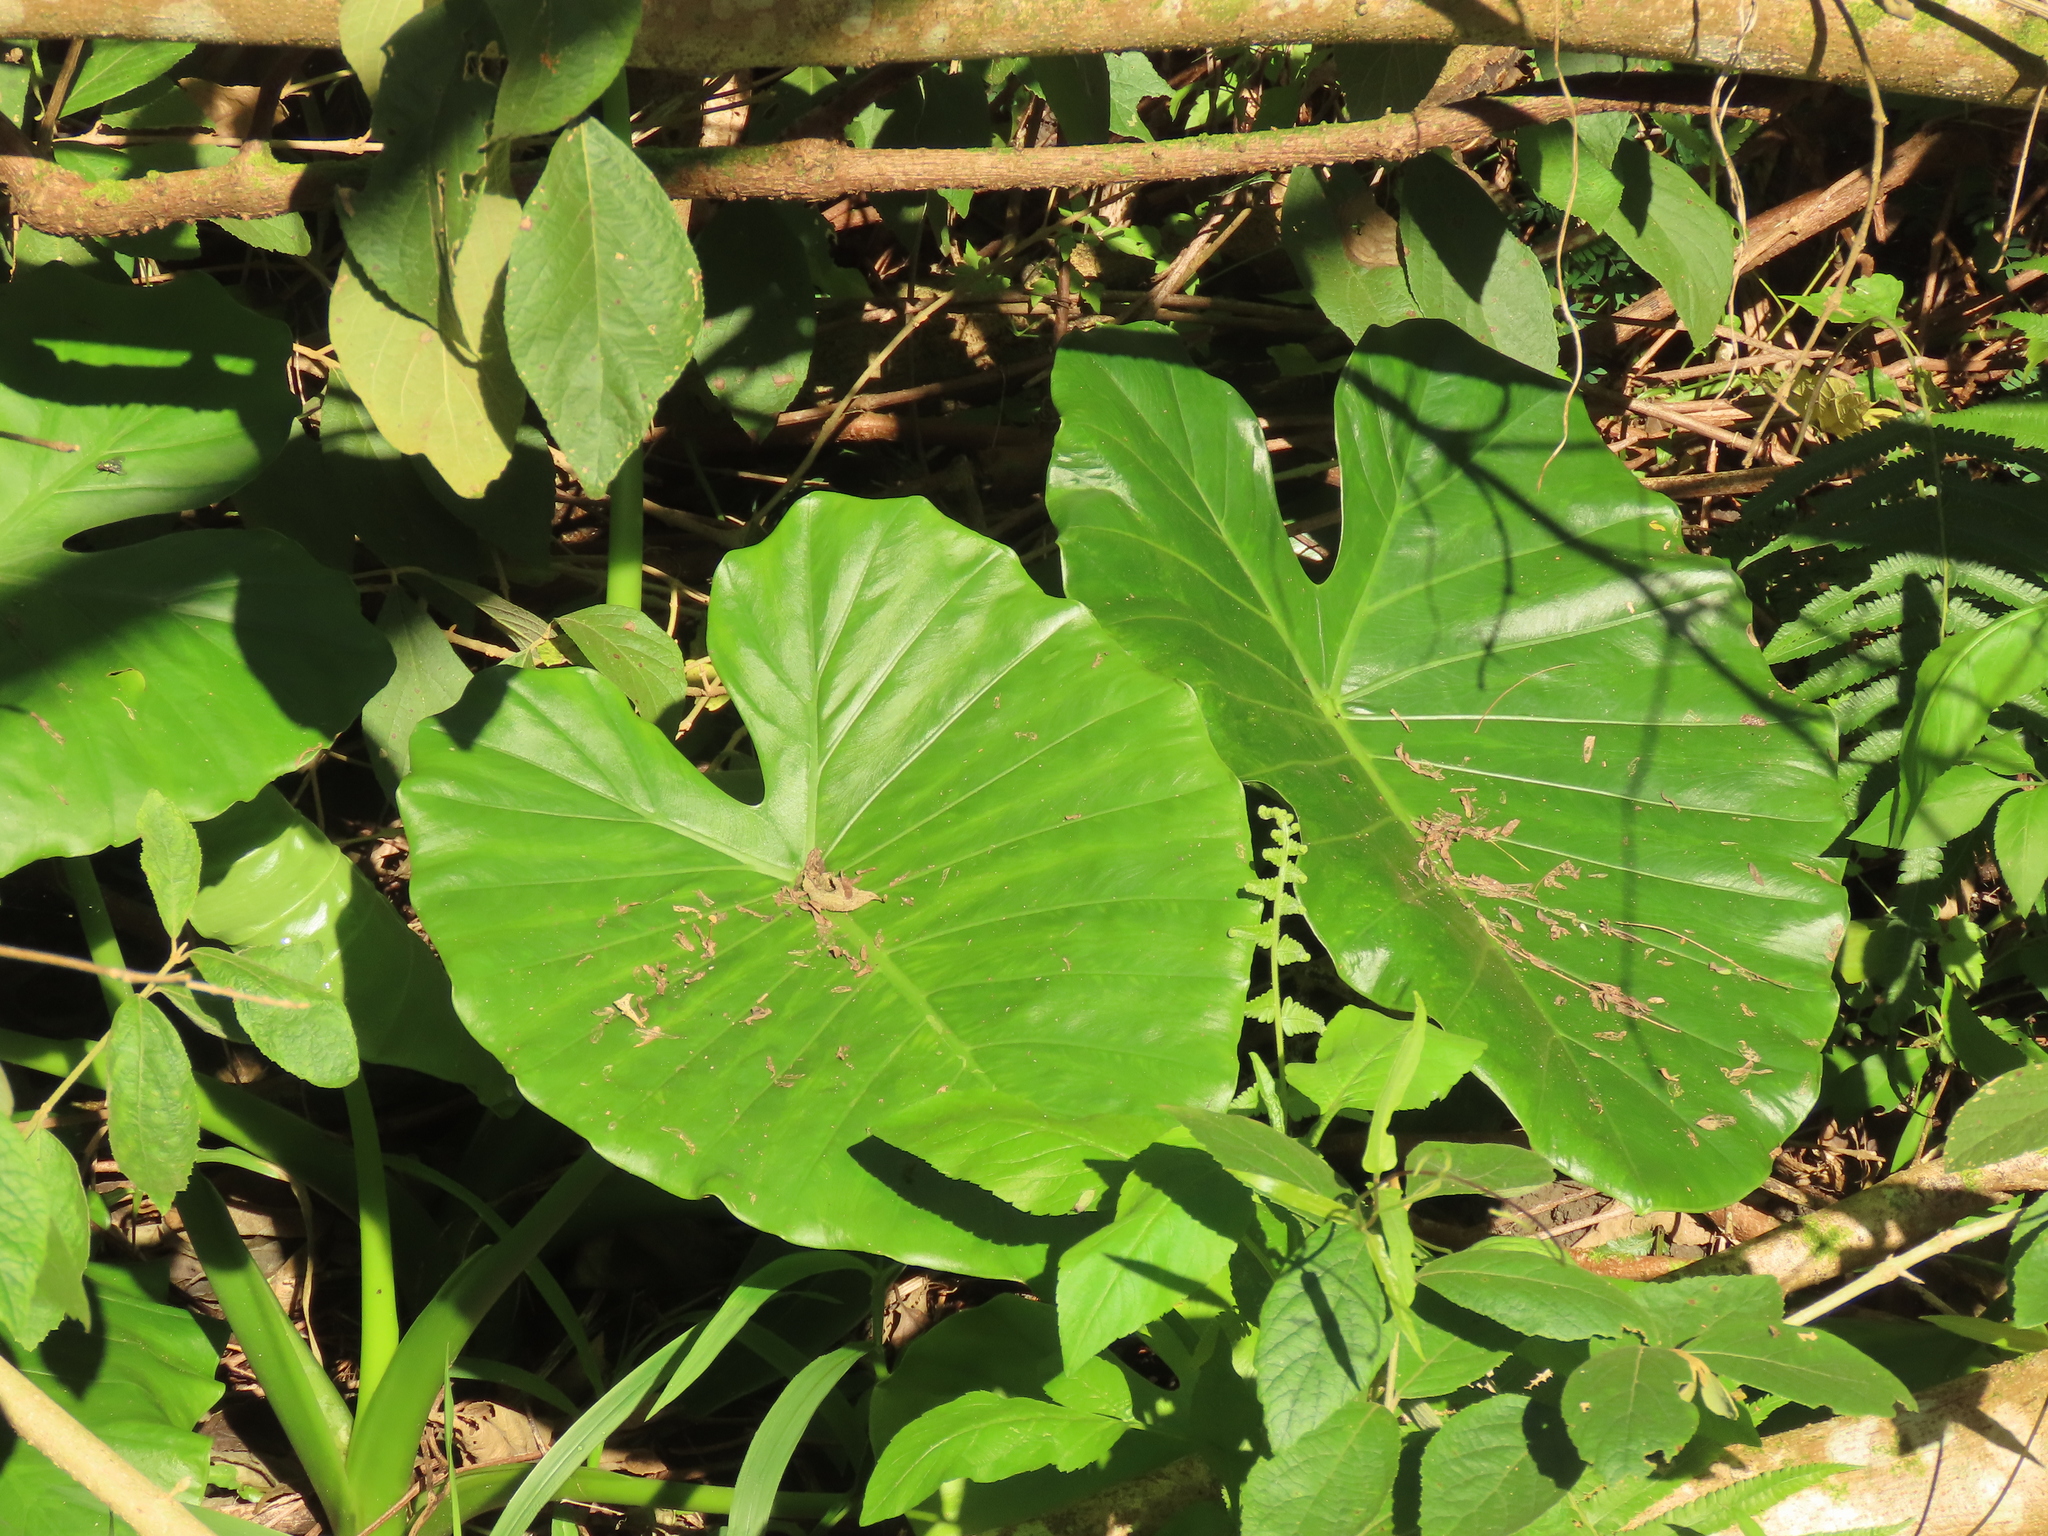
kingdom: Plantae
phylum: Tracheophyta
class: Liliopsida
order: Alismatales
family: Araceae
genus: Alocasia
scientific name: Alocasia odora
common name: Asian taro
